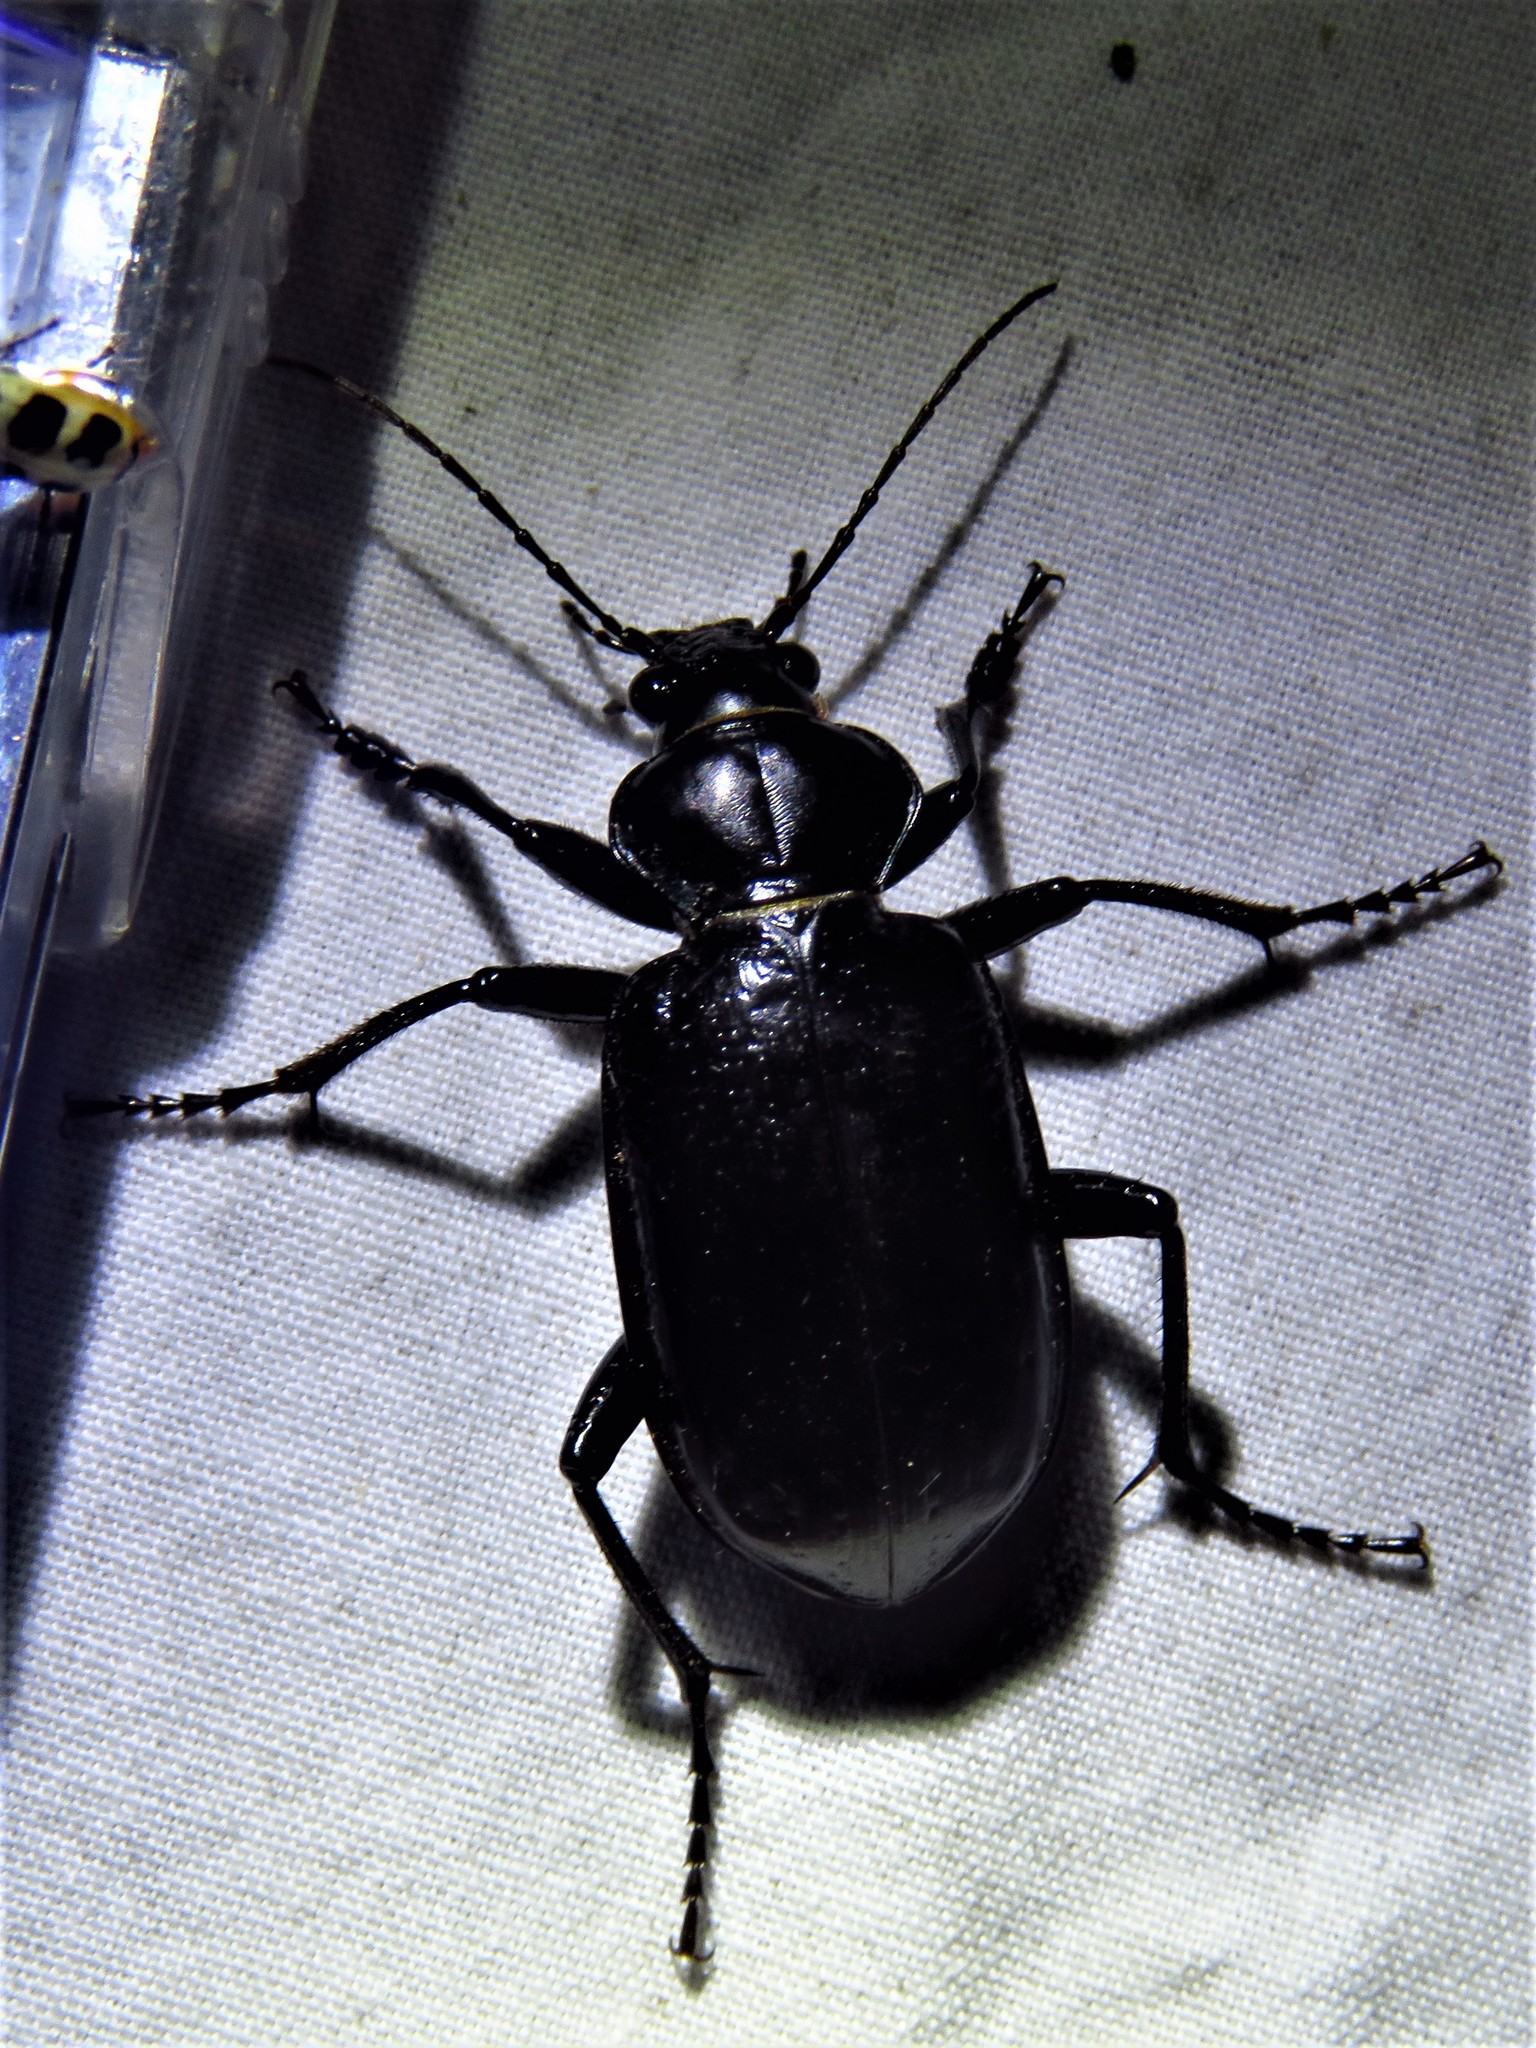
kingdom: Animalia
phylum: Arthropoda
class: Insecta
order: Coleoptera
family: Carabidae
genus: Calosoma
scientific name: Calosoma marginale
